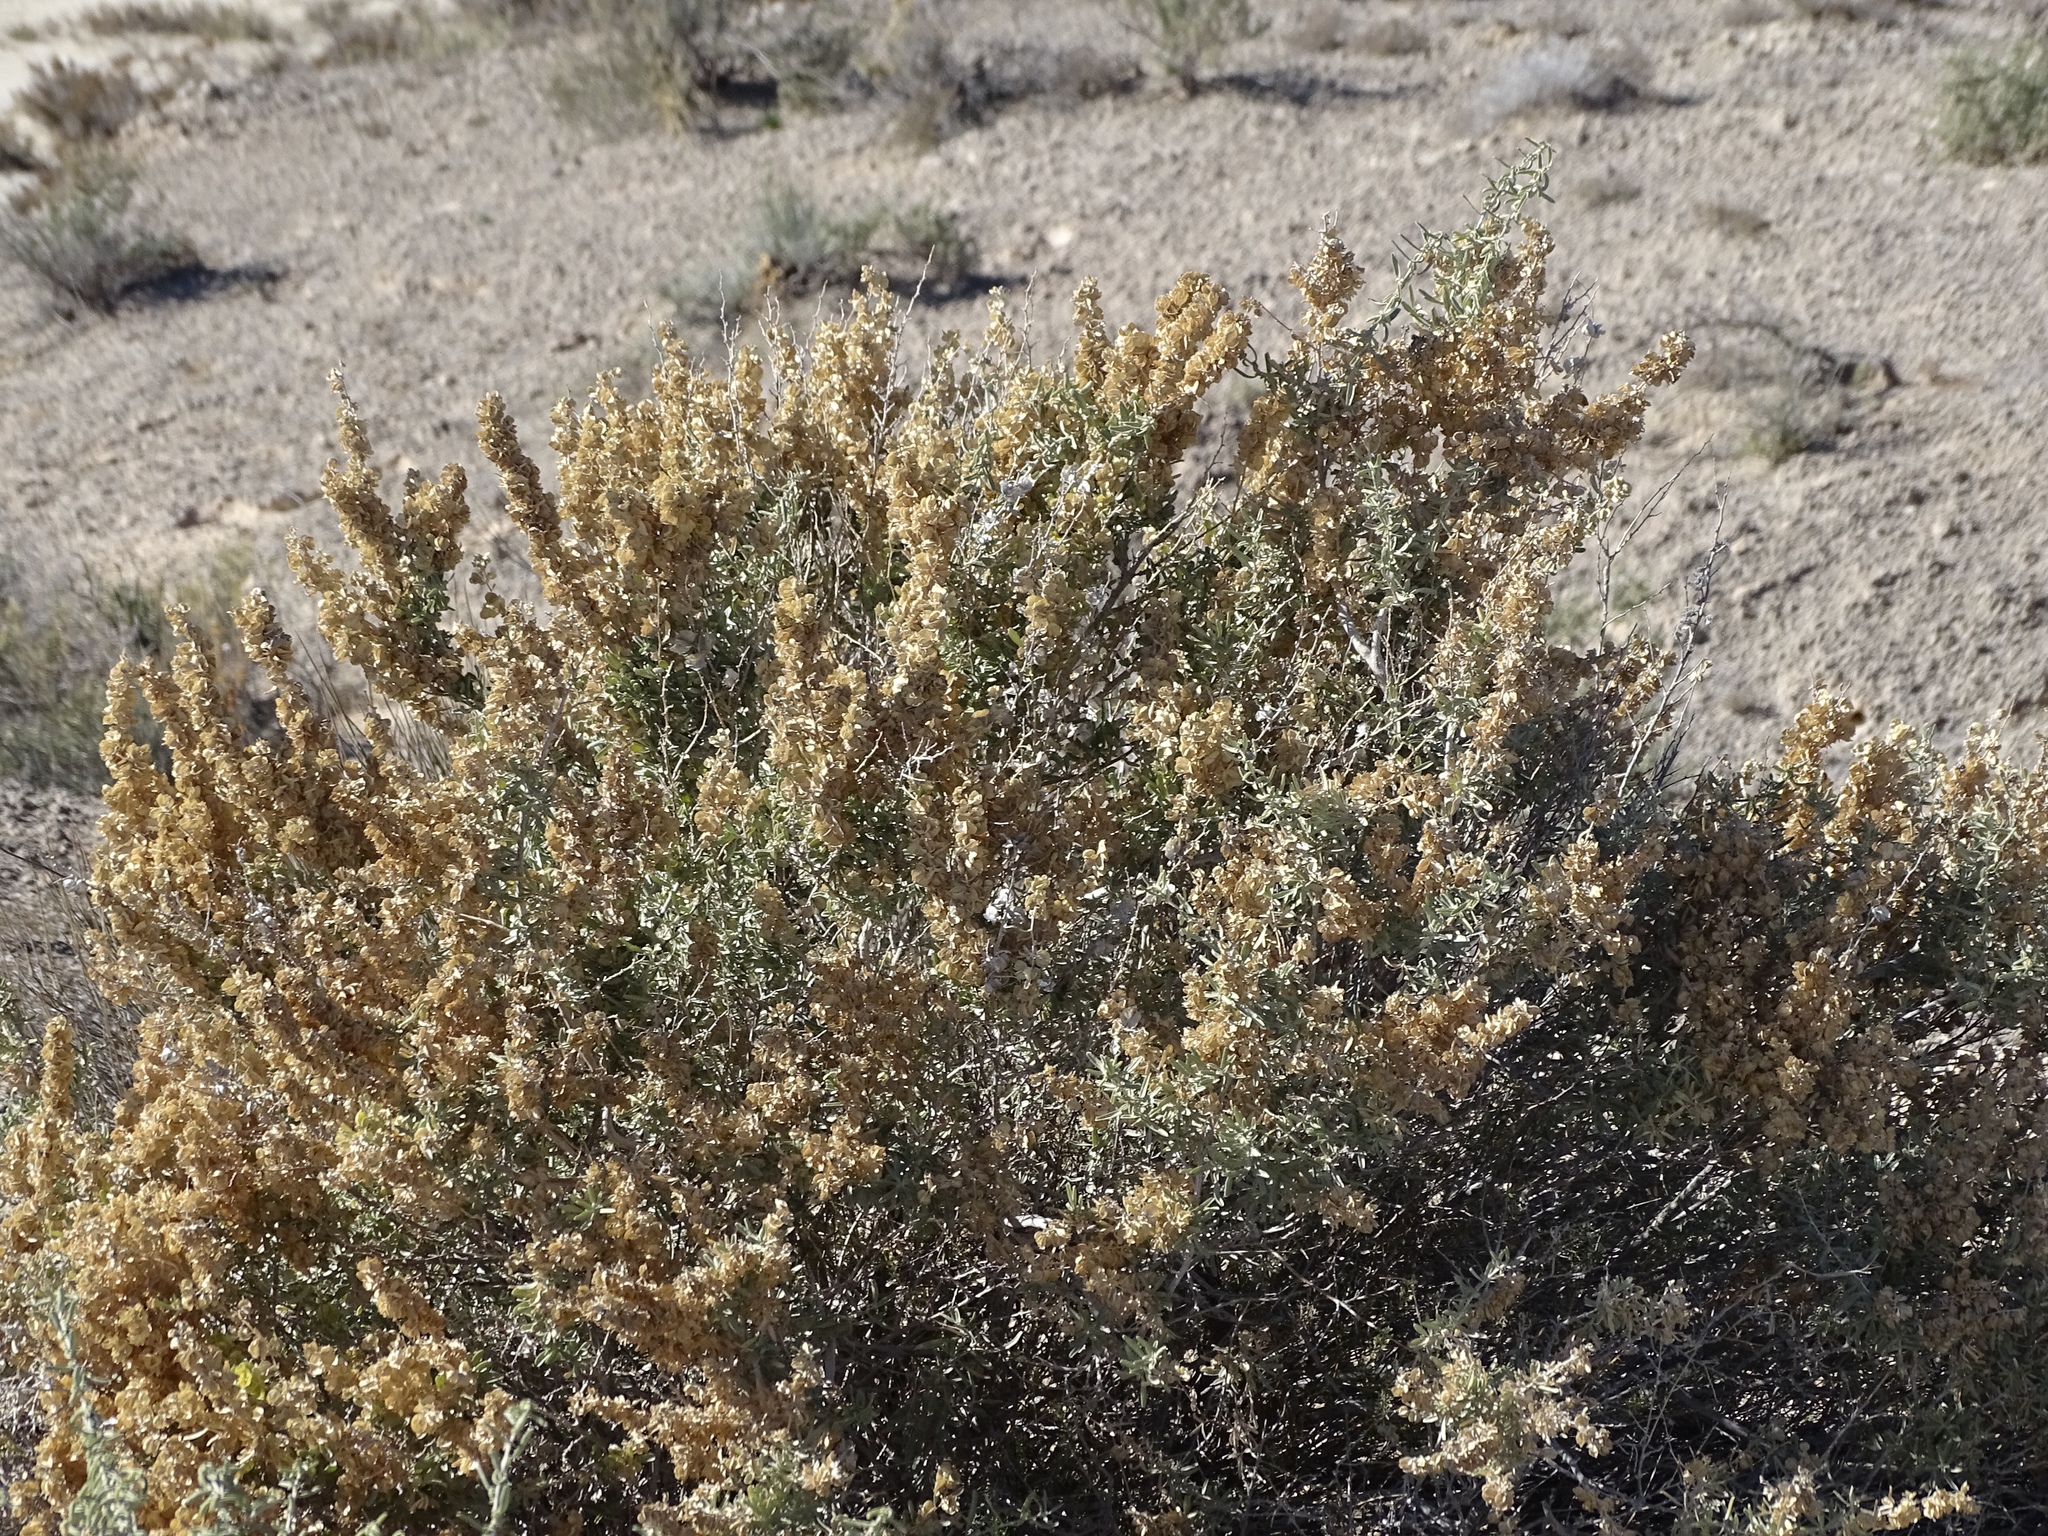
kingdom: Plantae
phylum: Tracheophyta
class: Magnoliopsida
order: Caryophyllales
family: Amaranthaceae
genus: Atriplex
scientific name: Atriplex canescens
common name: Four-wing saltbush
